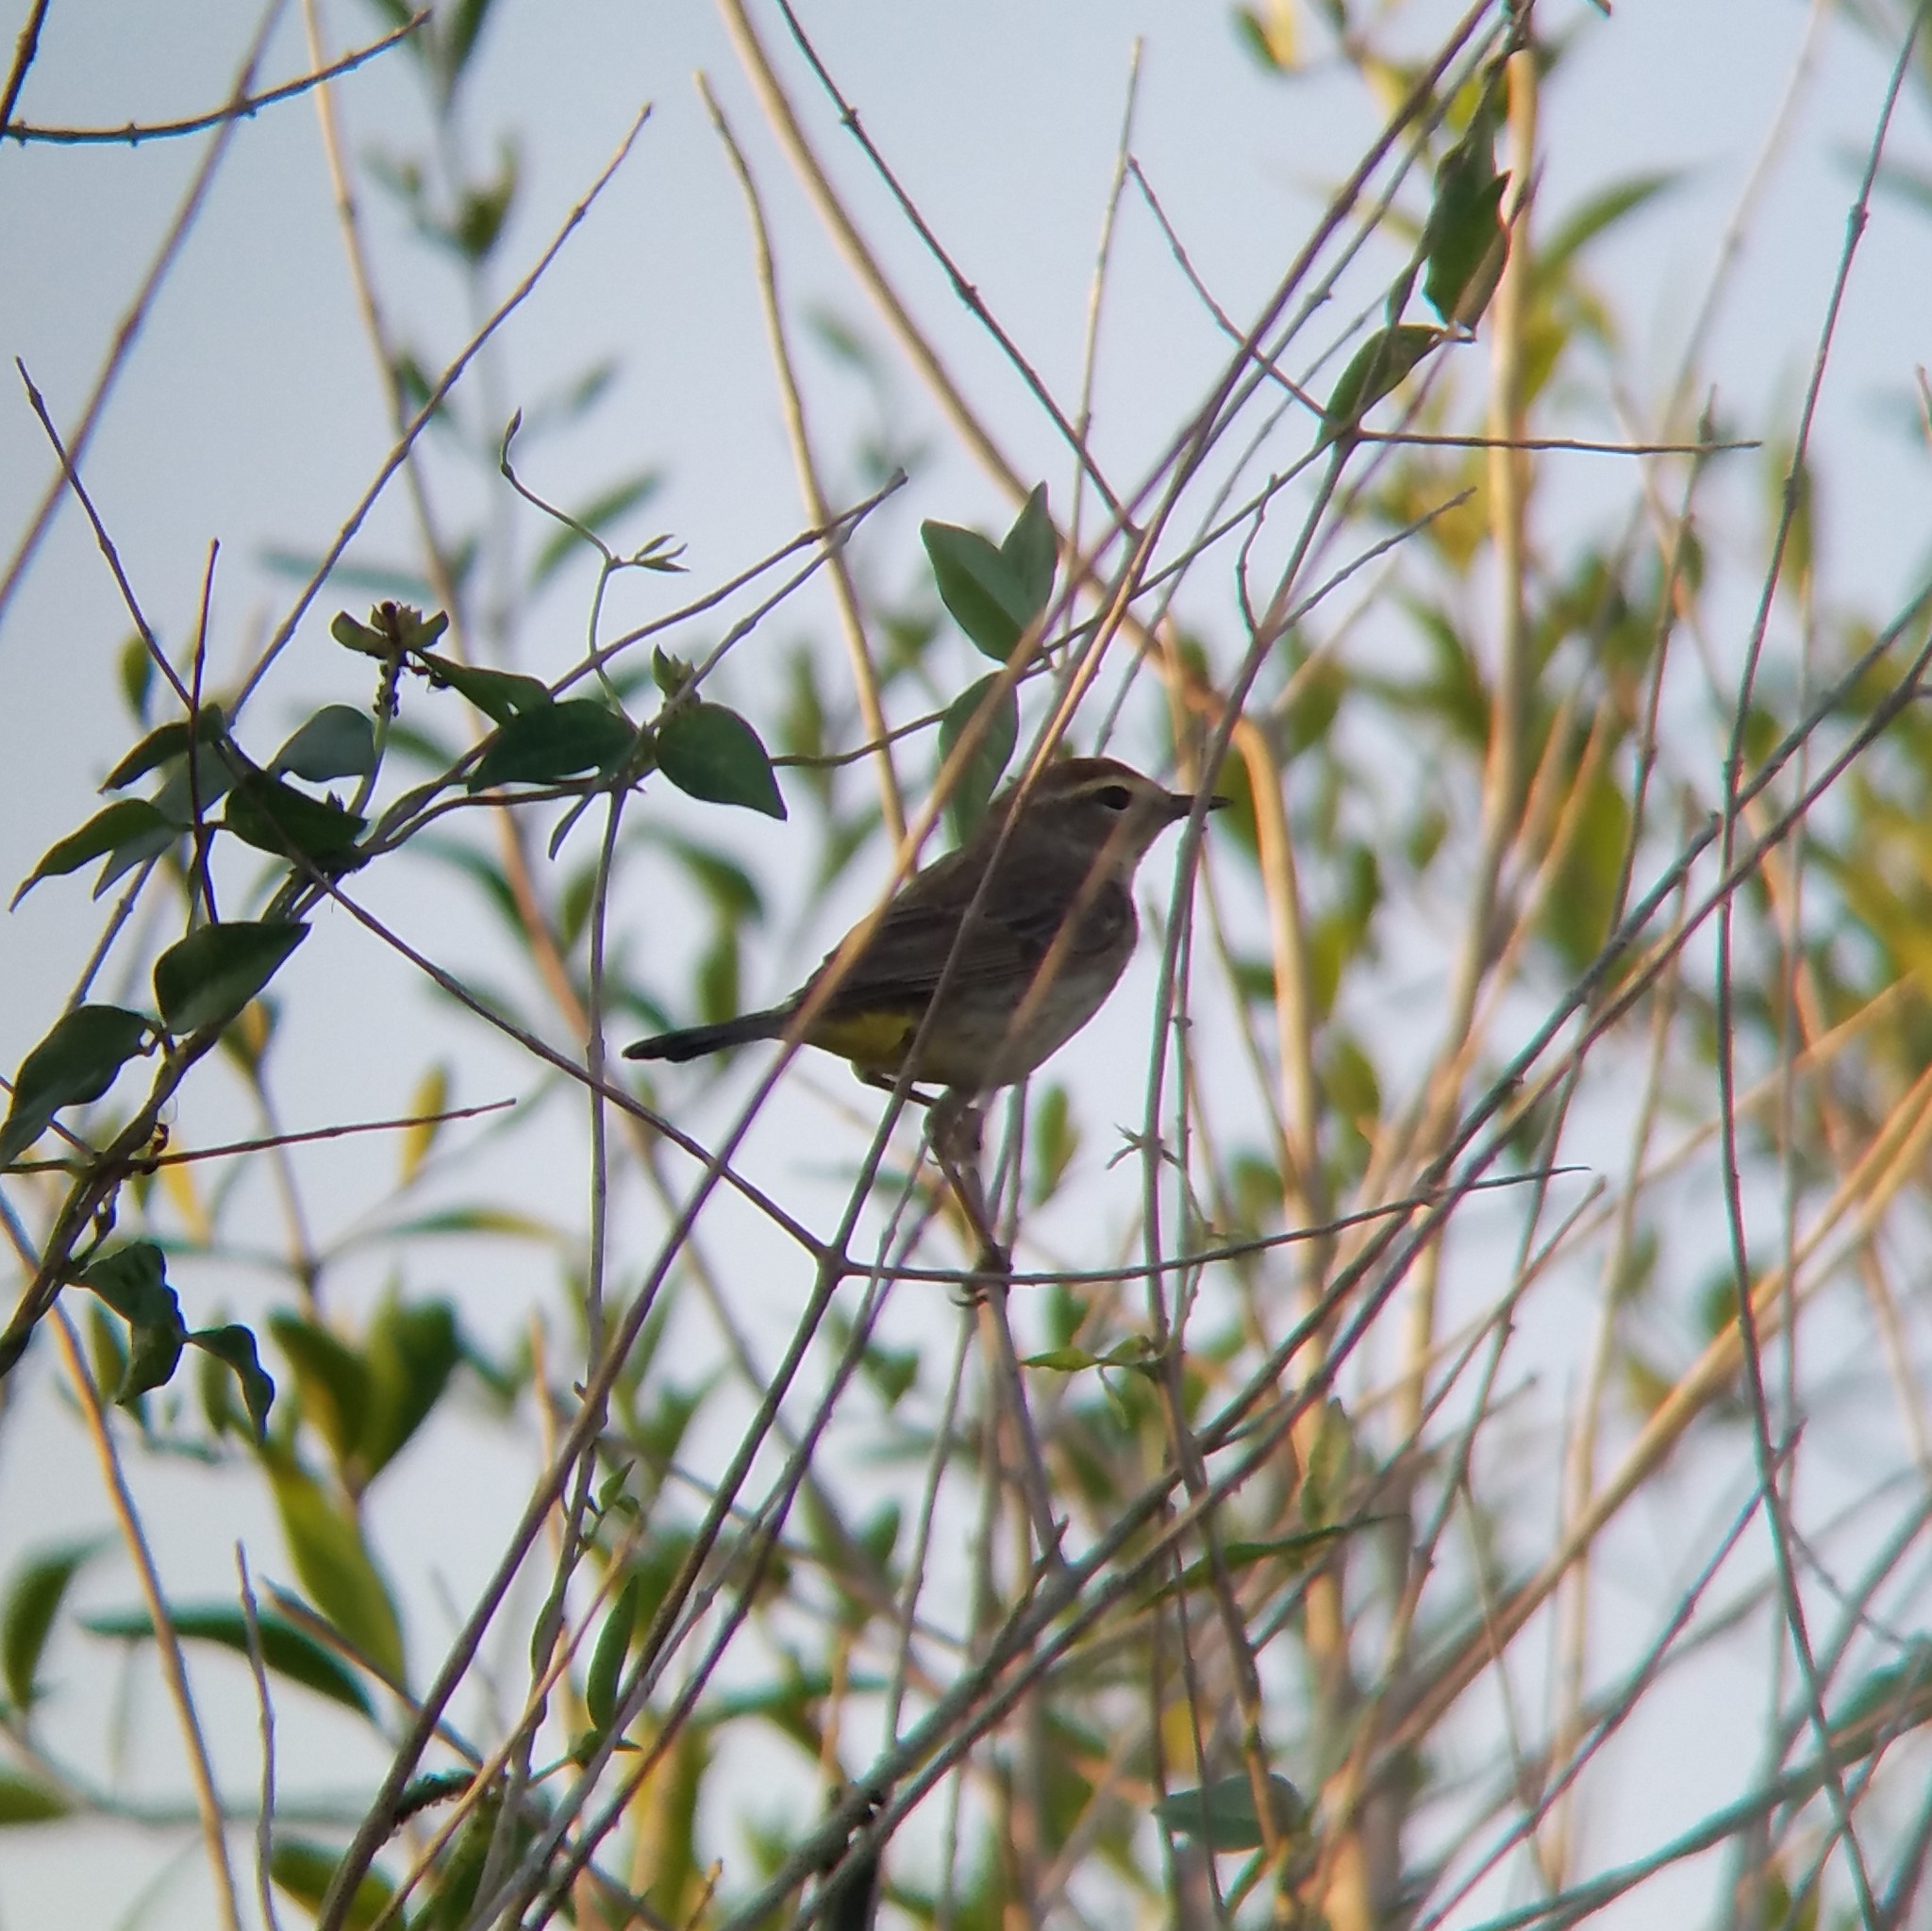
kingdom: Animalia
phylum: Chordata
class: Aves
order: Passeriformes
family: Parulidae
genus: Setophaga
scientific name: Setophaga palmarum
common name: Palm warbler
